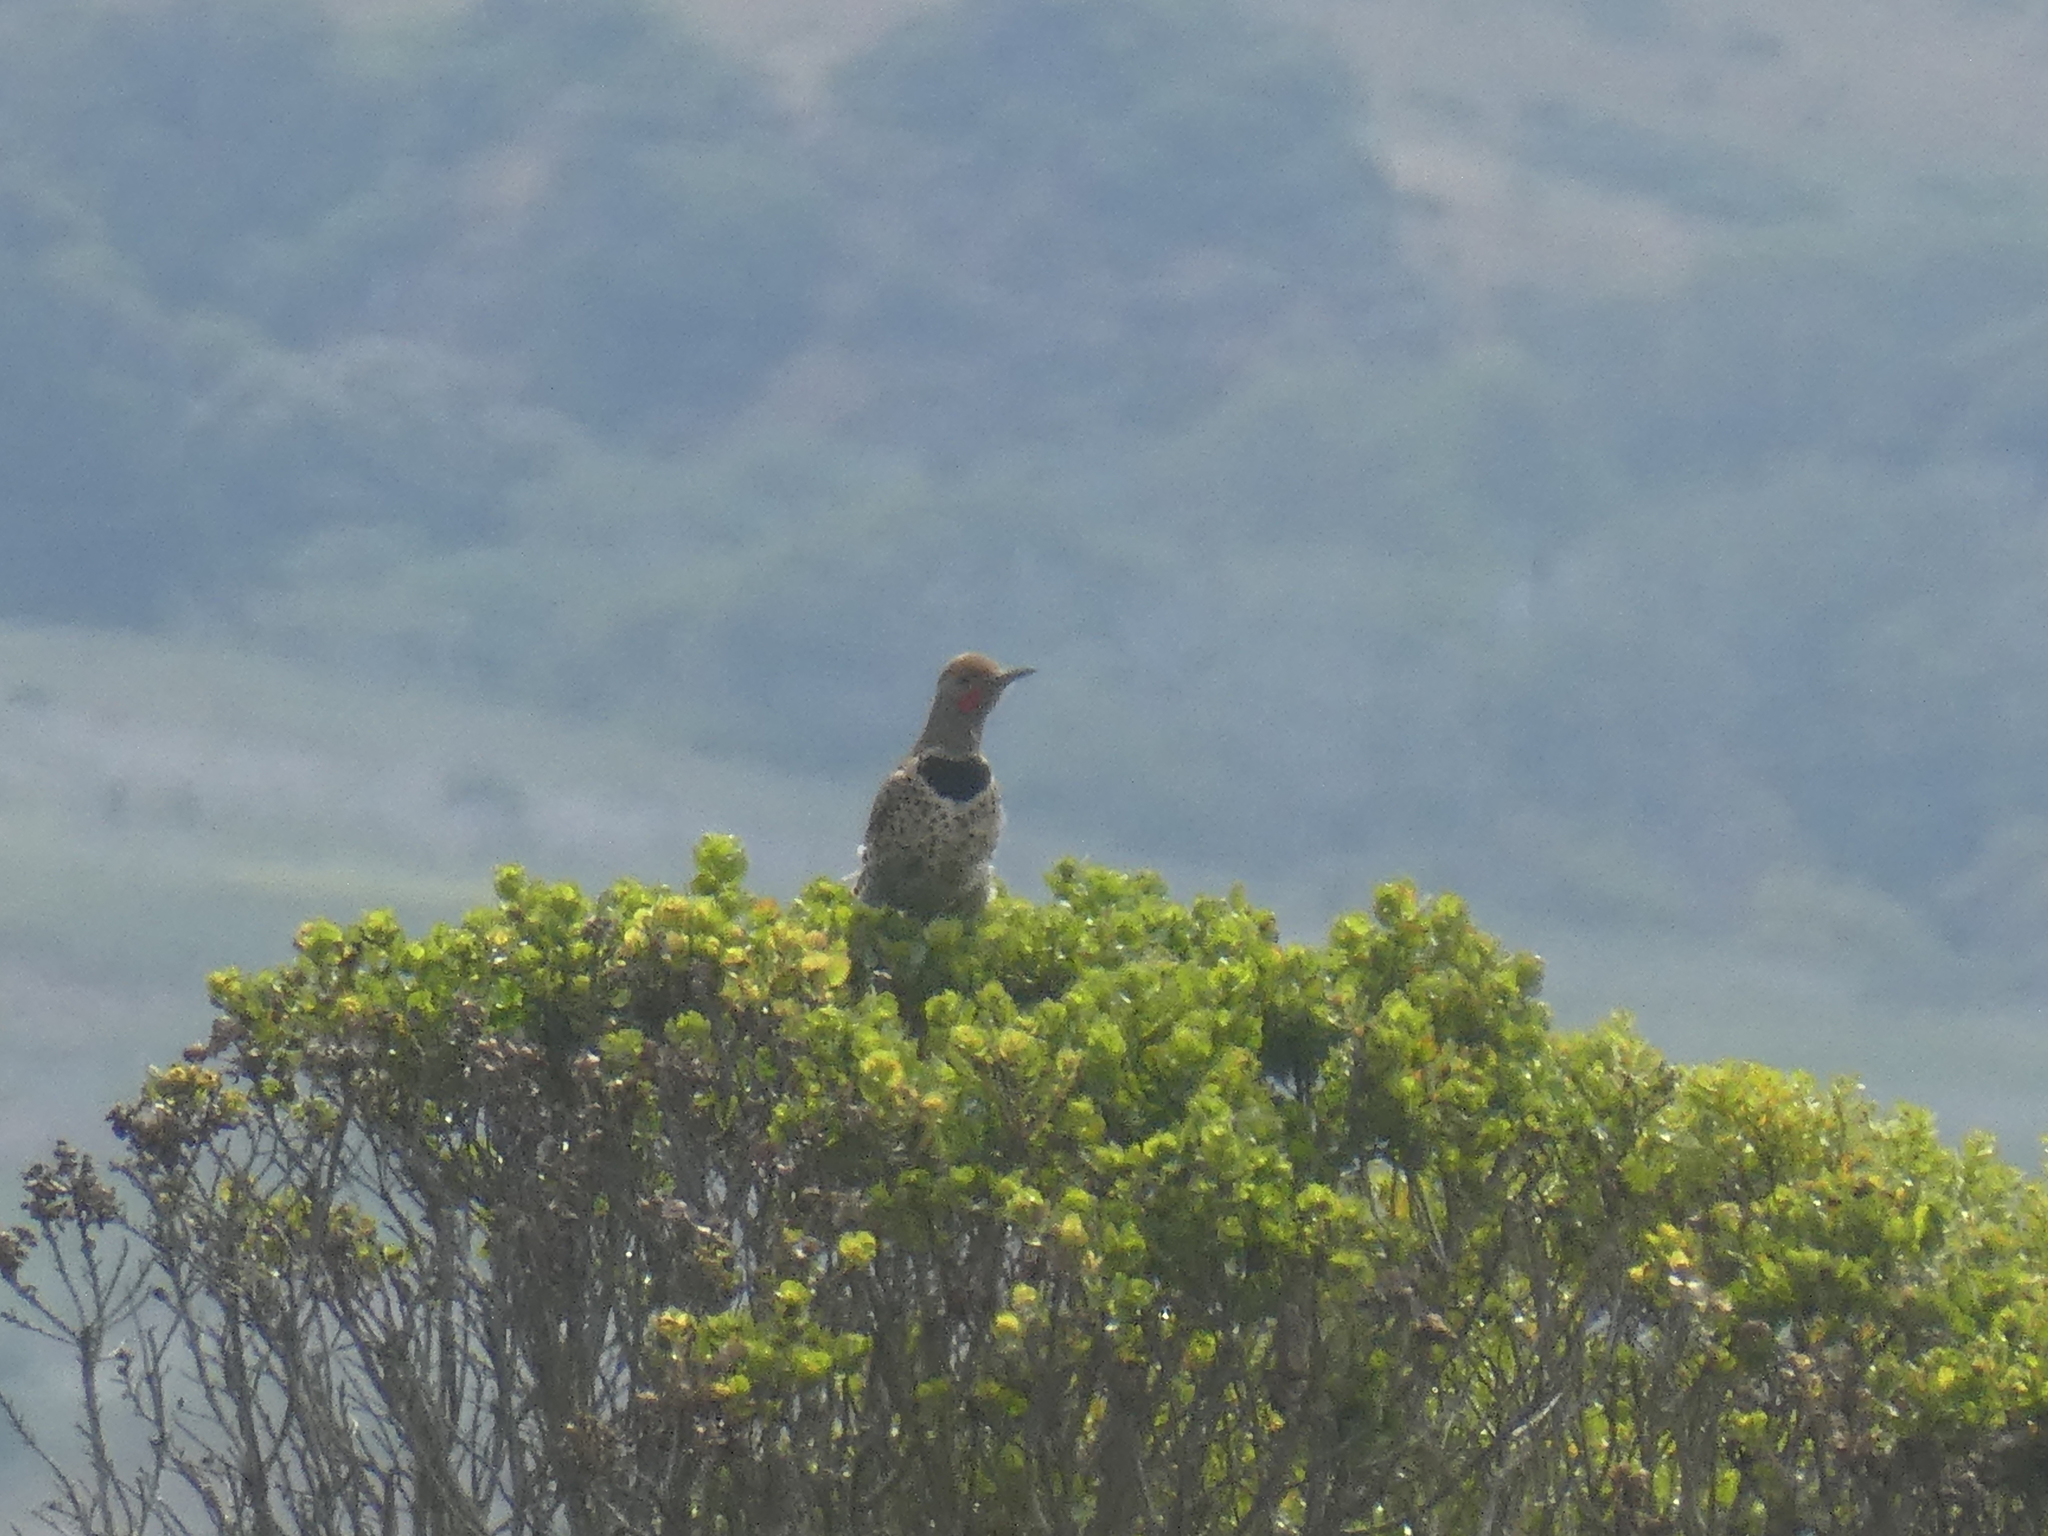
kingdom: Animalia
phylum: Chordata
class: Aves
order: Piciformes
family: Picidae
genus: Colaptes
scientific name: Colaptes auratus
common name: Northern flicker
